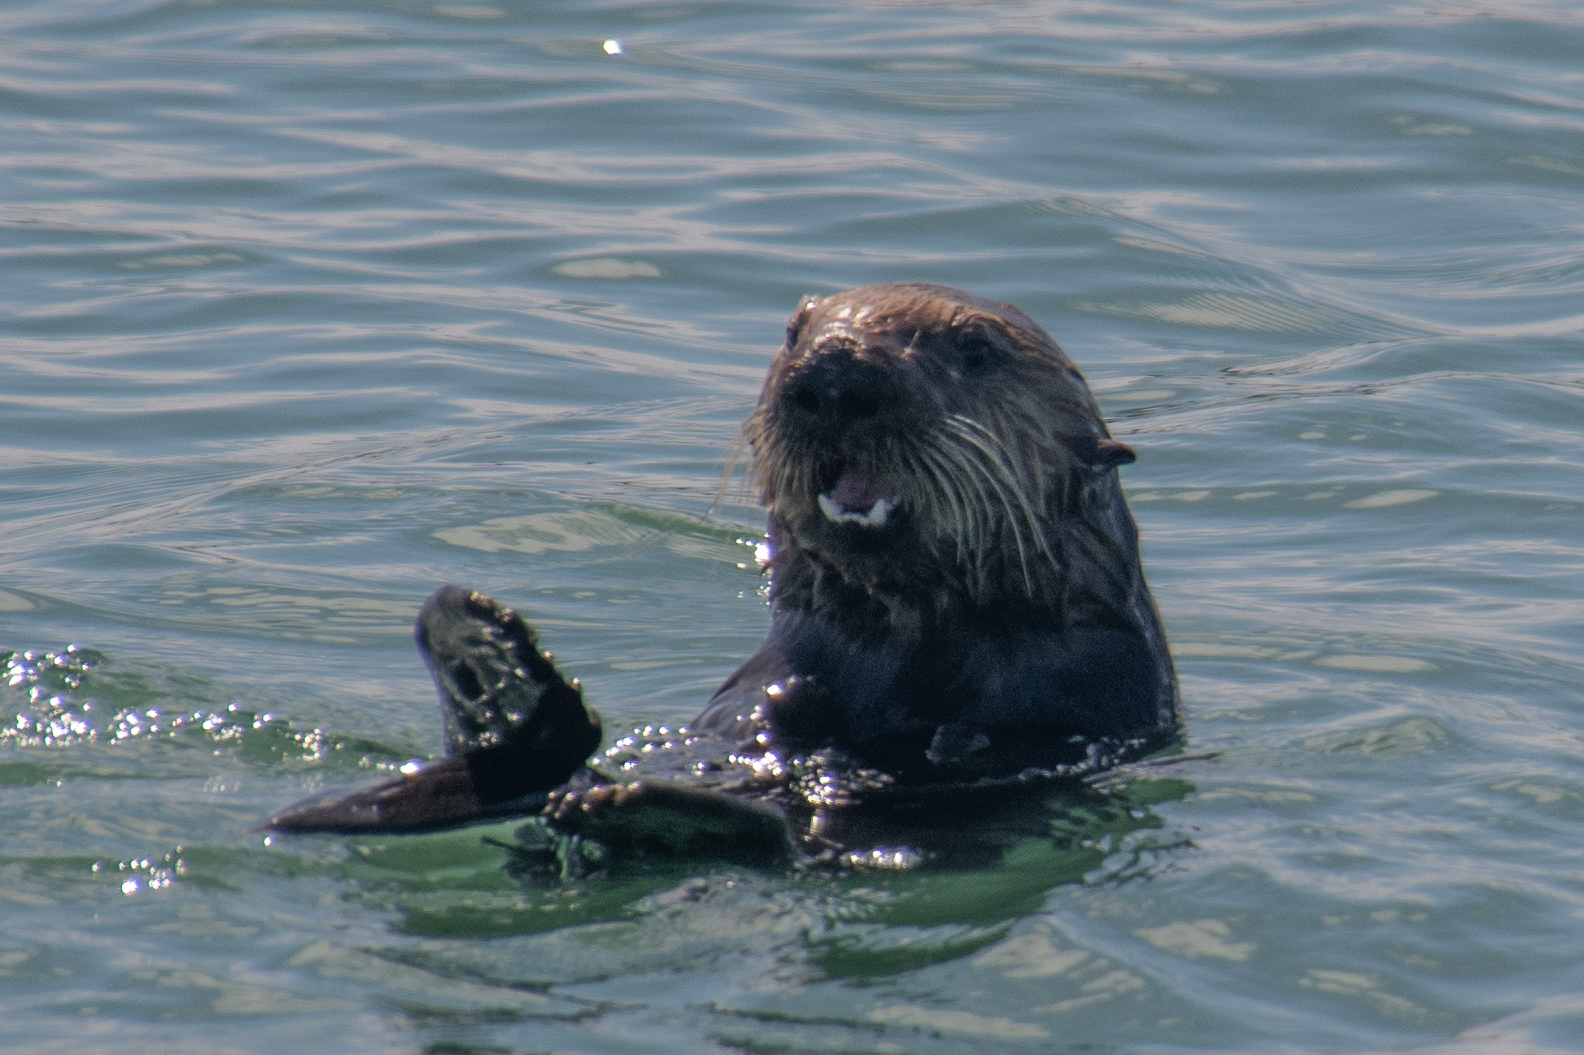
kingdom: Animalia
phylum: Chordata
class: Mammalia
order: Carnivora
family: Mustelidae
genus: Enhydra
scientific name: Enhydra lutris
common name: Sea otter
